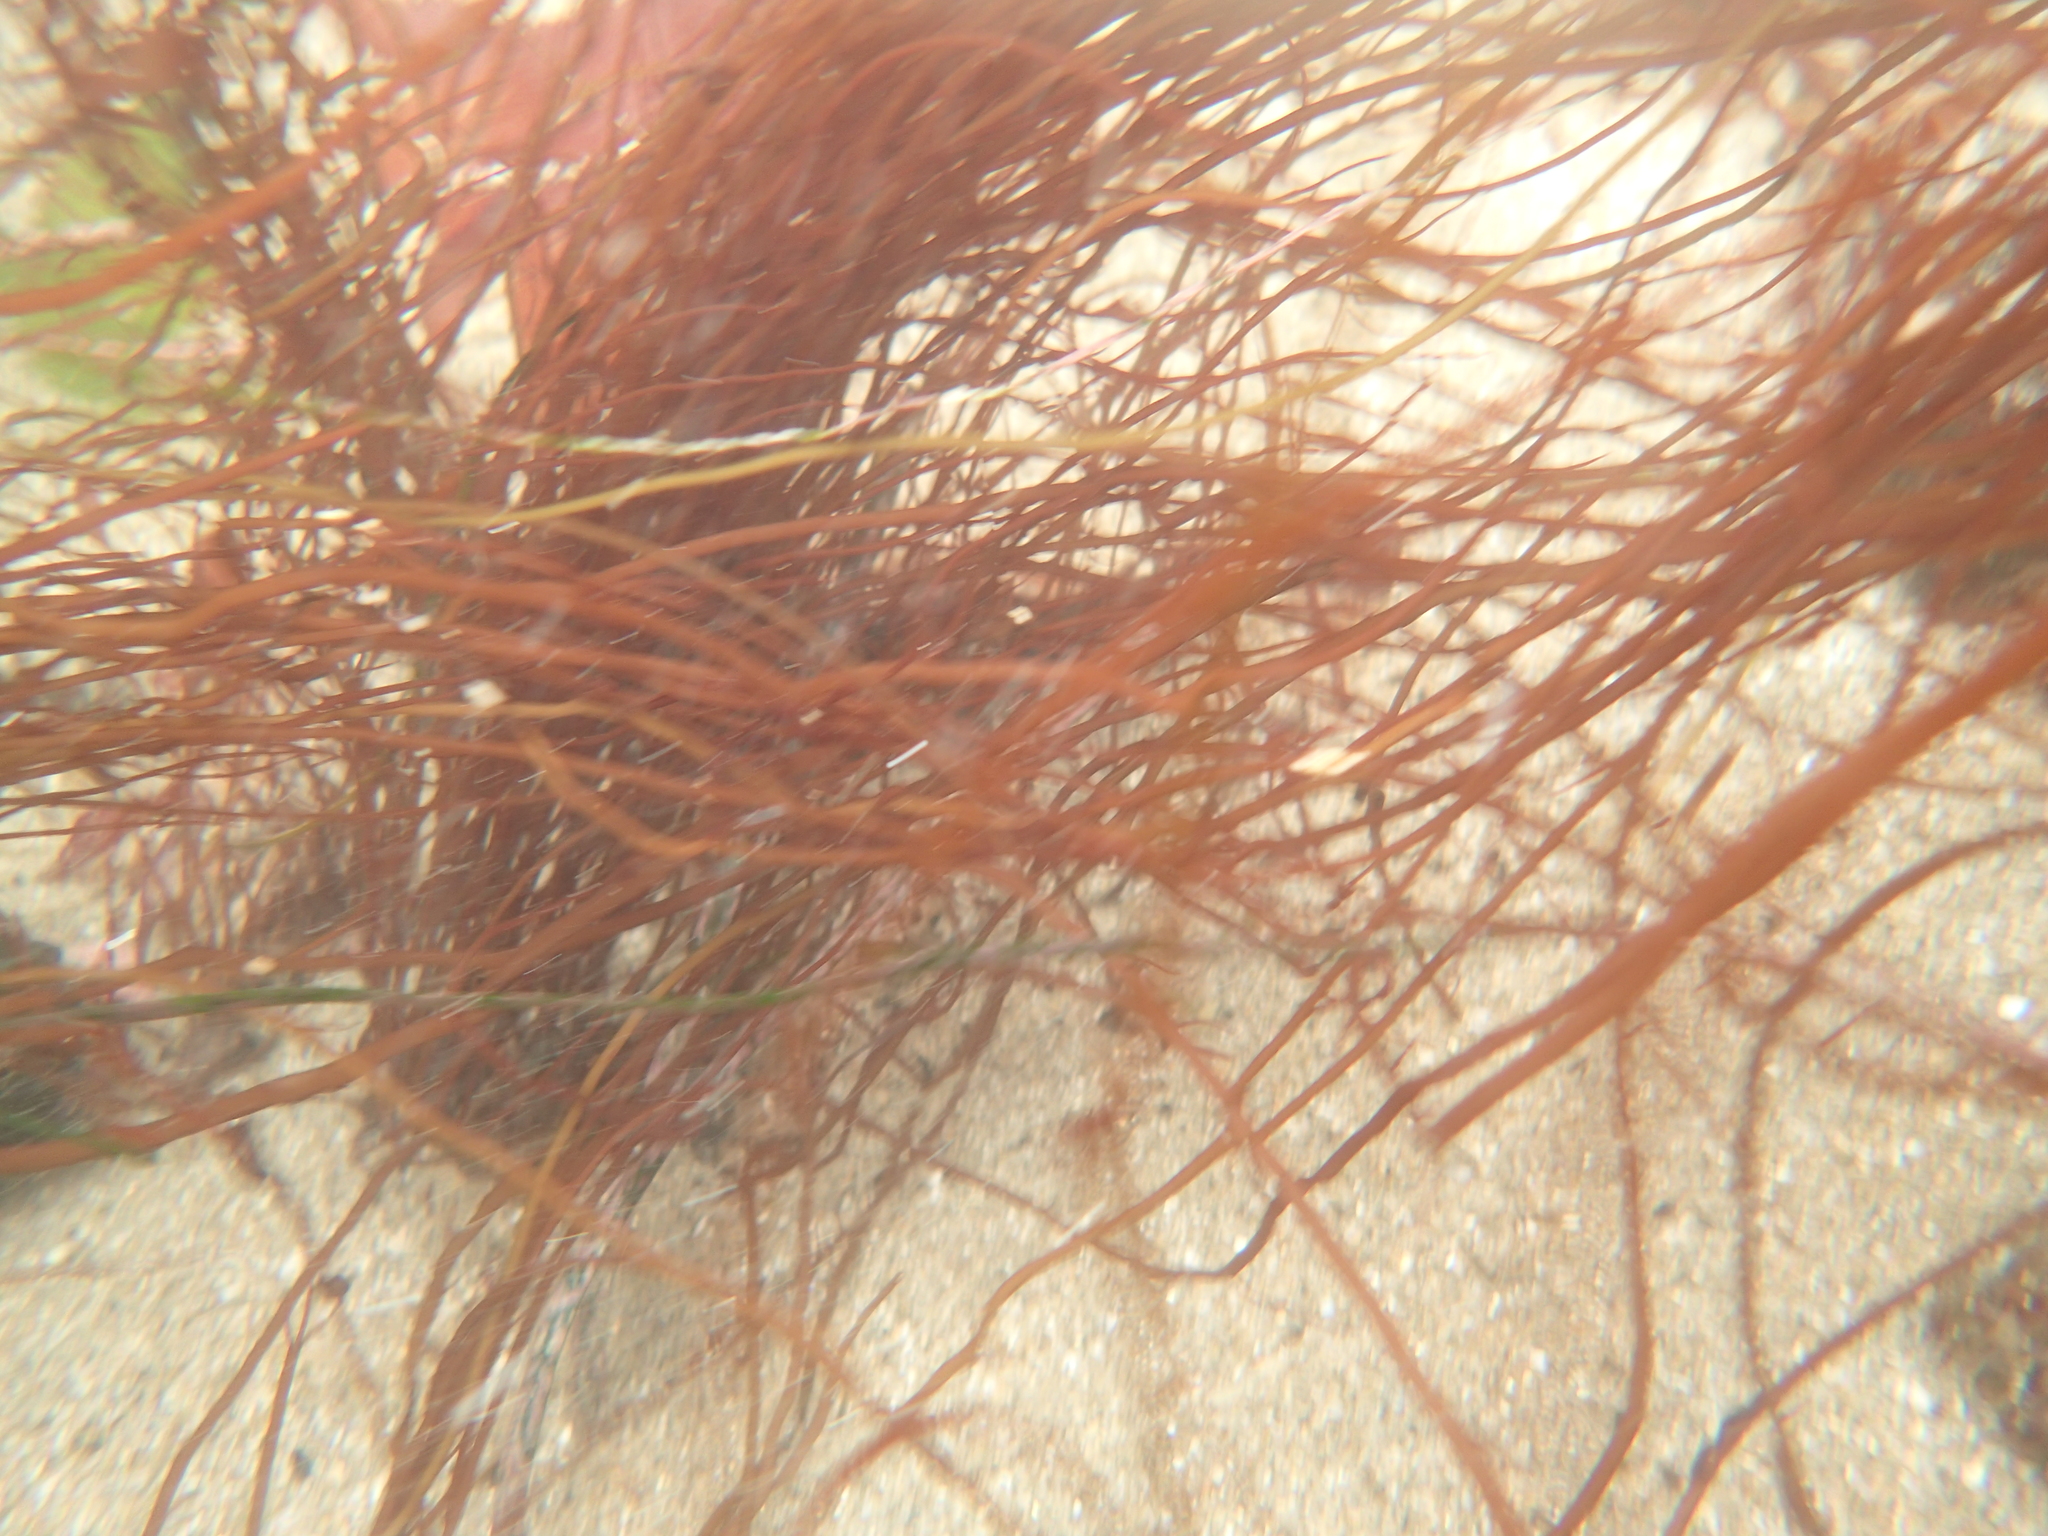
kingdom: Plantae
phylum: Rhodophyta
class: Florideophyceae
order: Gracilariales
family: Gracilariaceae
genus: Gracilariopsis
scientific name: Gracilariopsis andersonii
